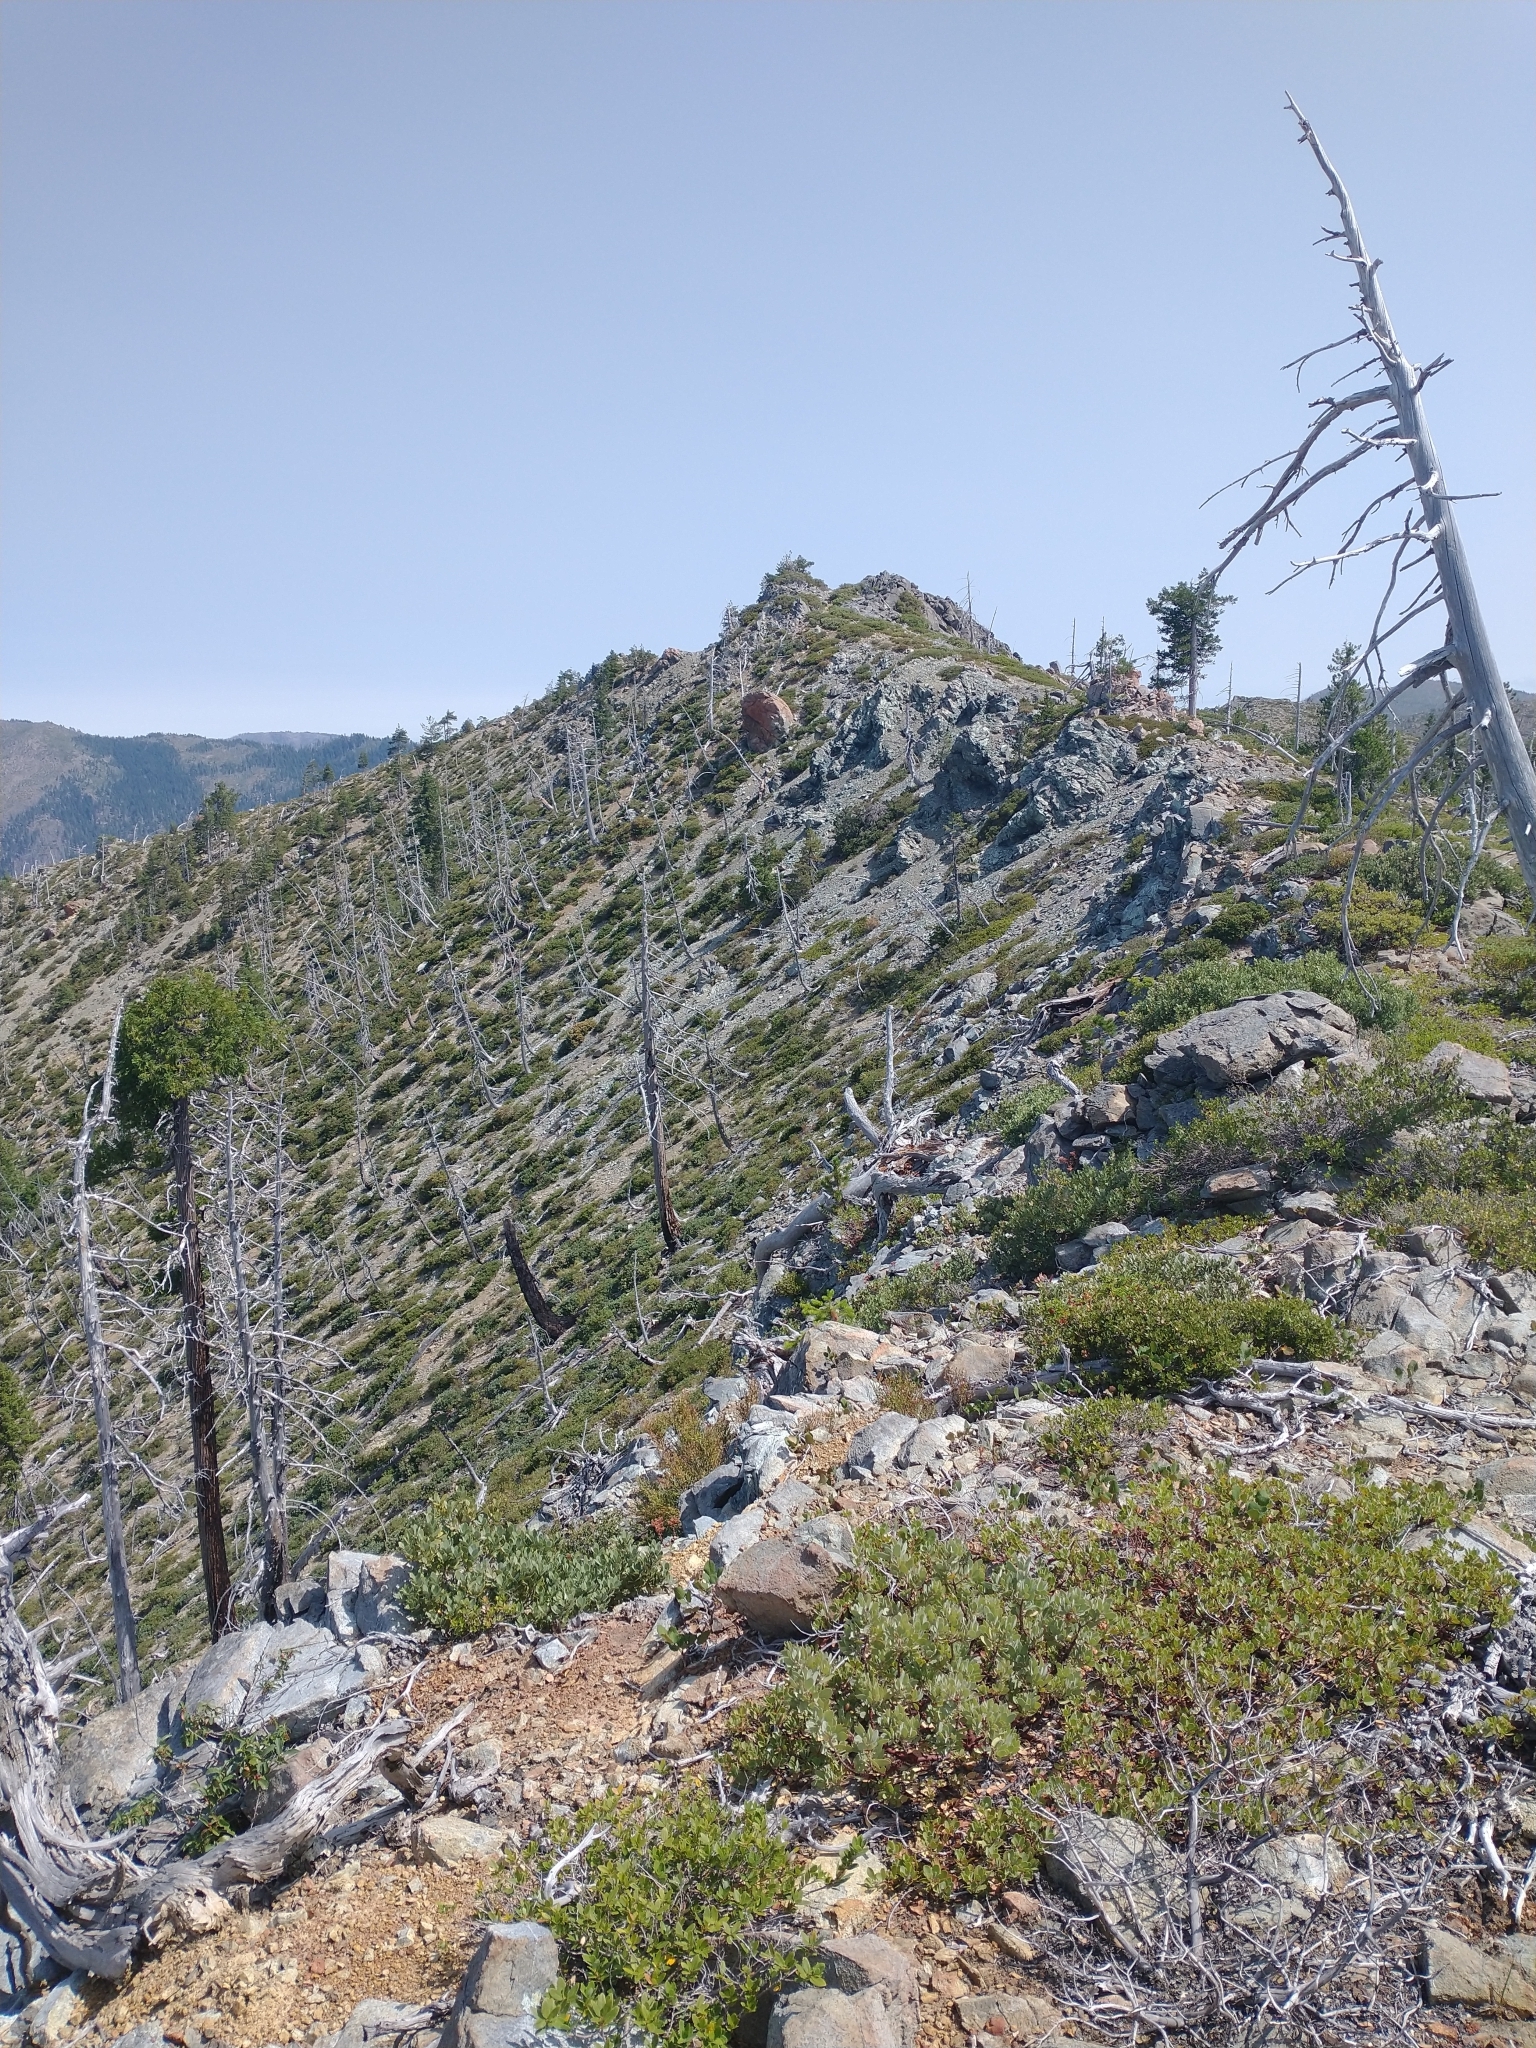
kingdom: Plantae
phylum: Tracheophyta
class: Magnoliopsida
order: Ericales
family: Ericaceae
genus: Arctostaphylos
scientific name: Arctostaphylos nevadensis
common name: Pinemat manzanita
